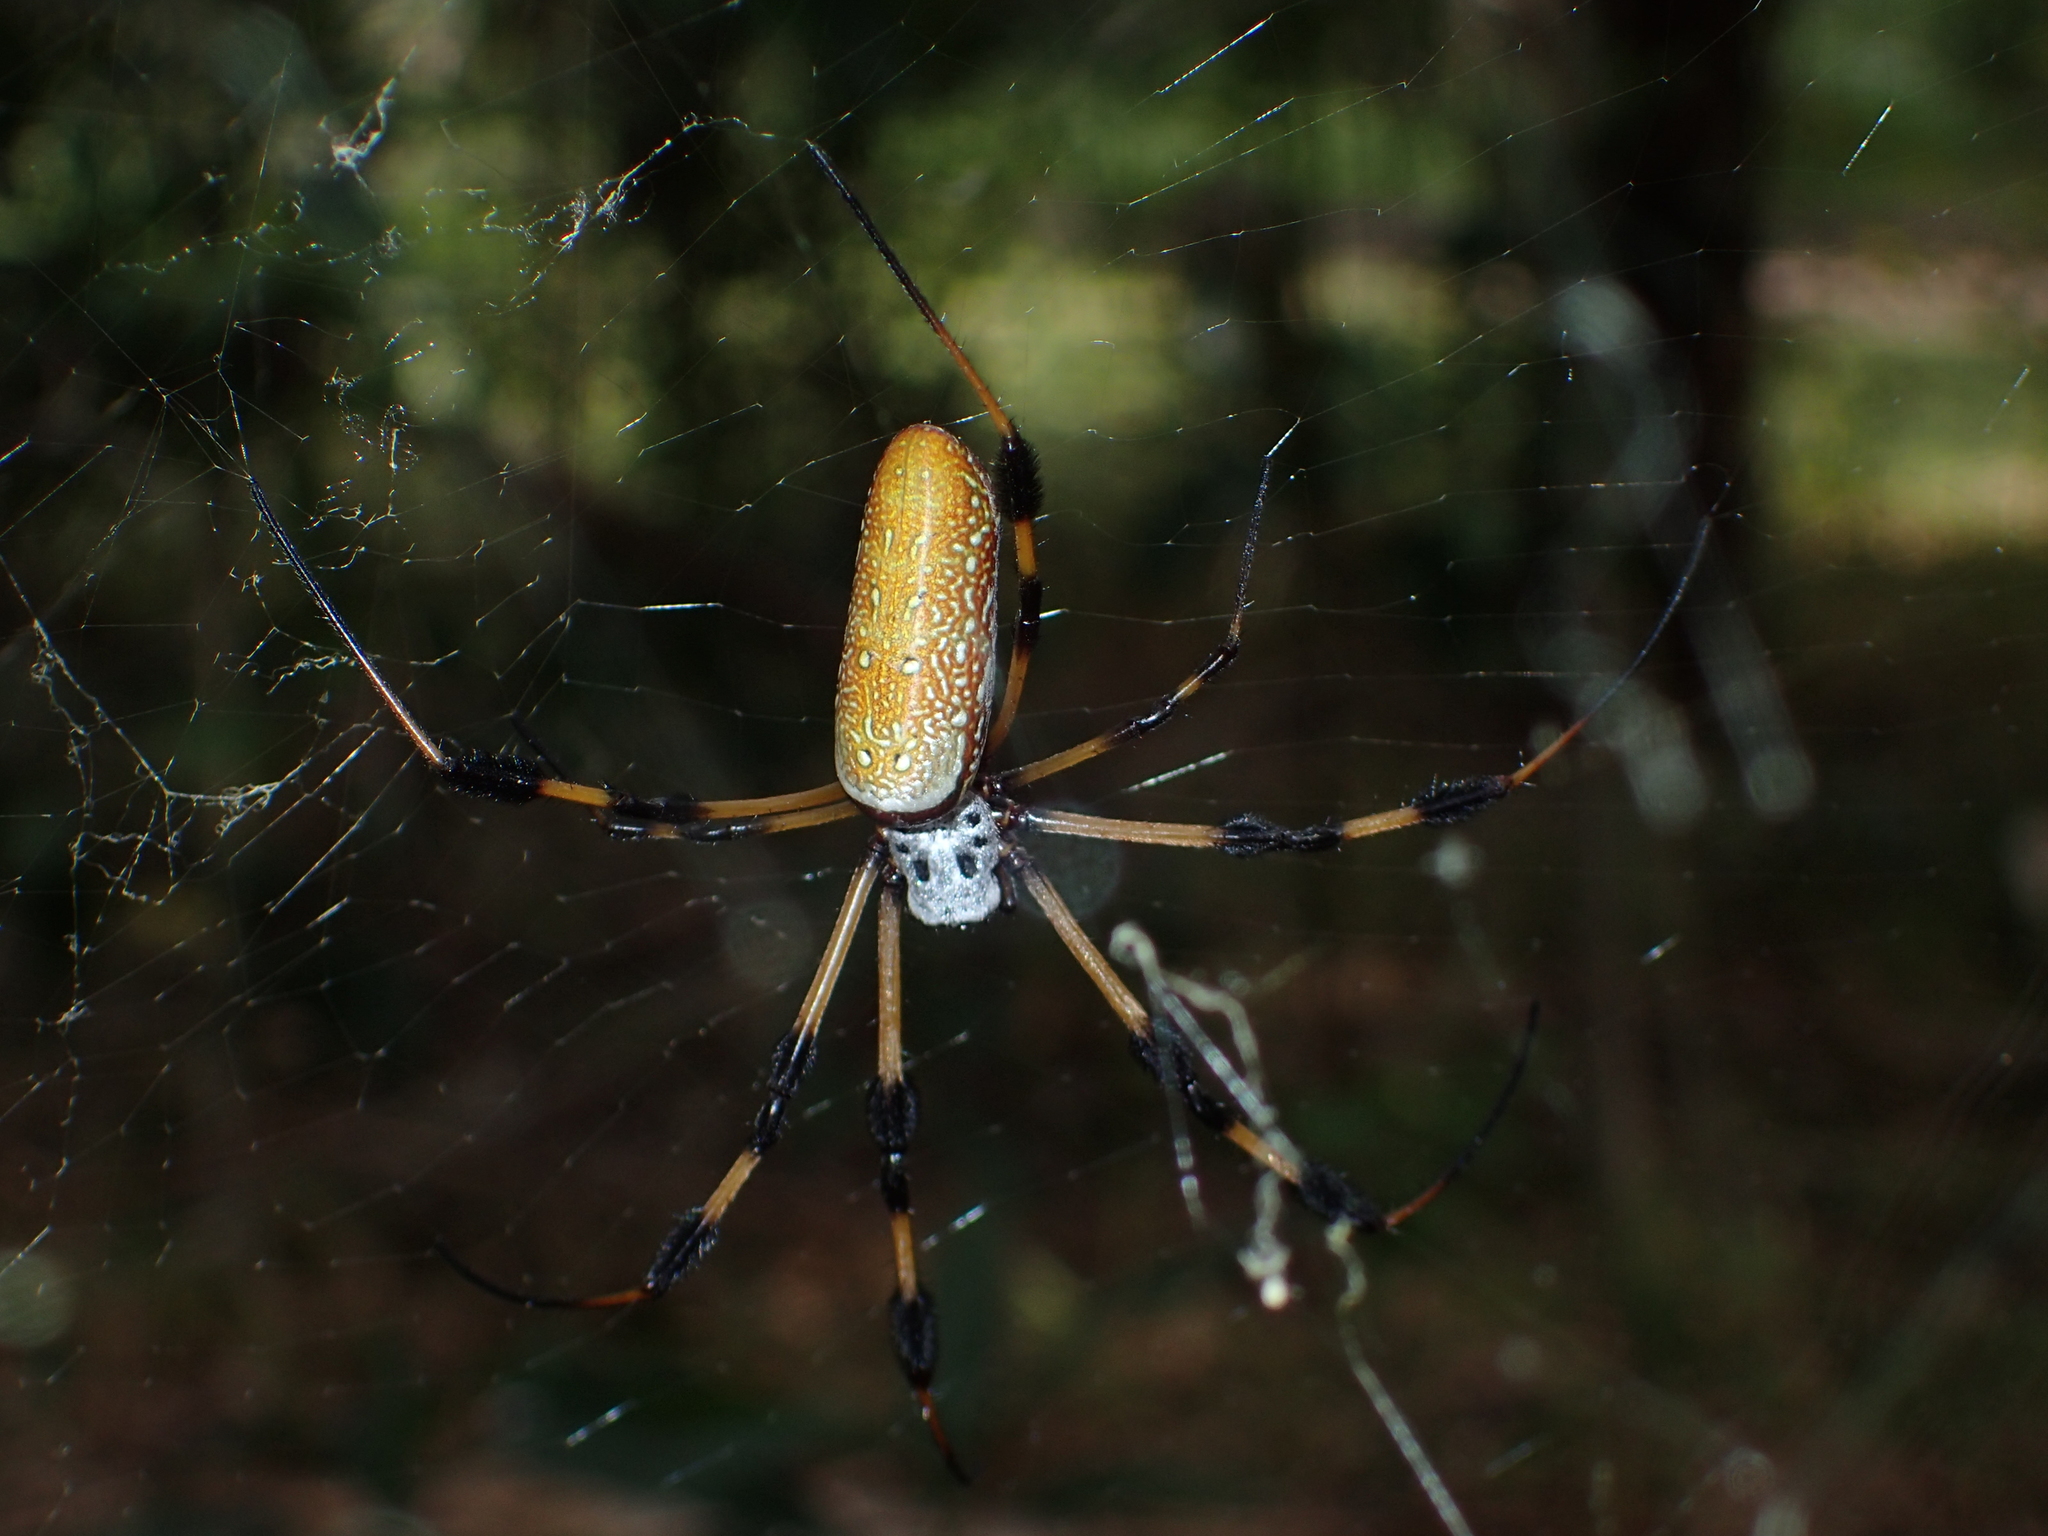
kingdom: Animalia
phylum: Arthropoda
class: Arachnida
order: Araneae
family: Araneidae
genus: Trichonephila
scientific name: Trichonephila clavipes
